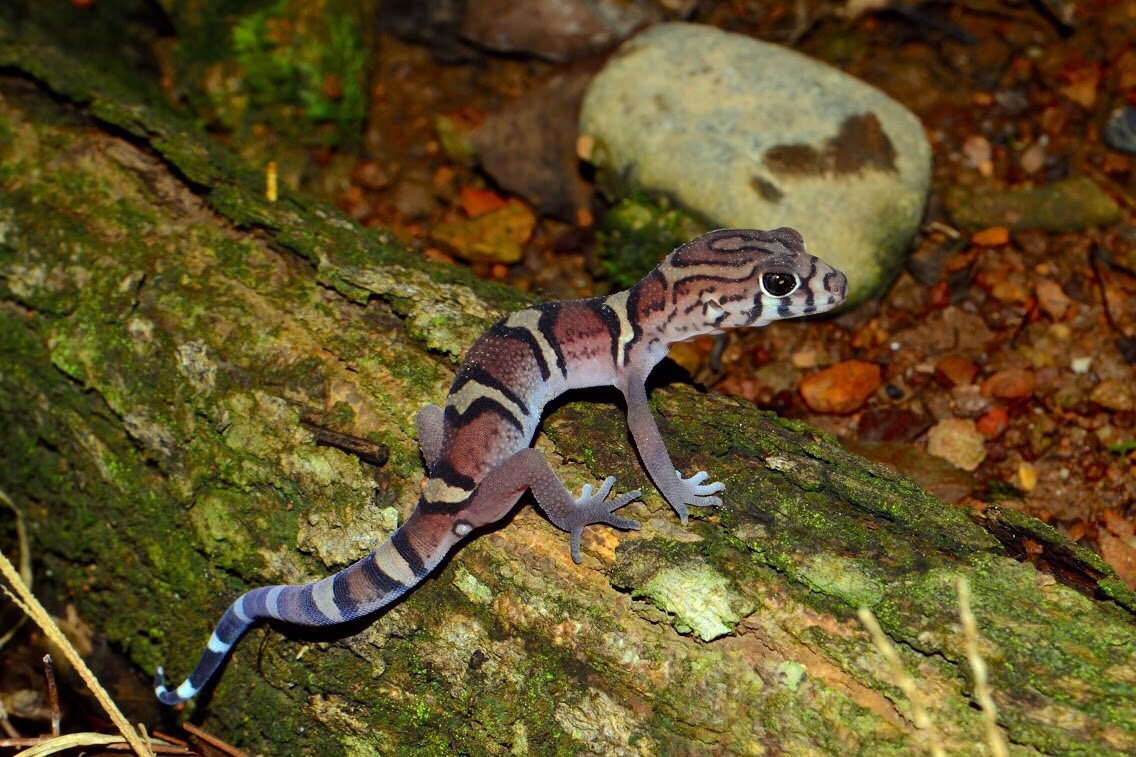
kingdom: Animalia
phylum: Chordata
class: Squamata
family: Eublepharidae
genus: Coleonyx
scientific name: Coleonyx elegans
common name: Yucatan banded gecko
